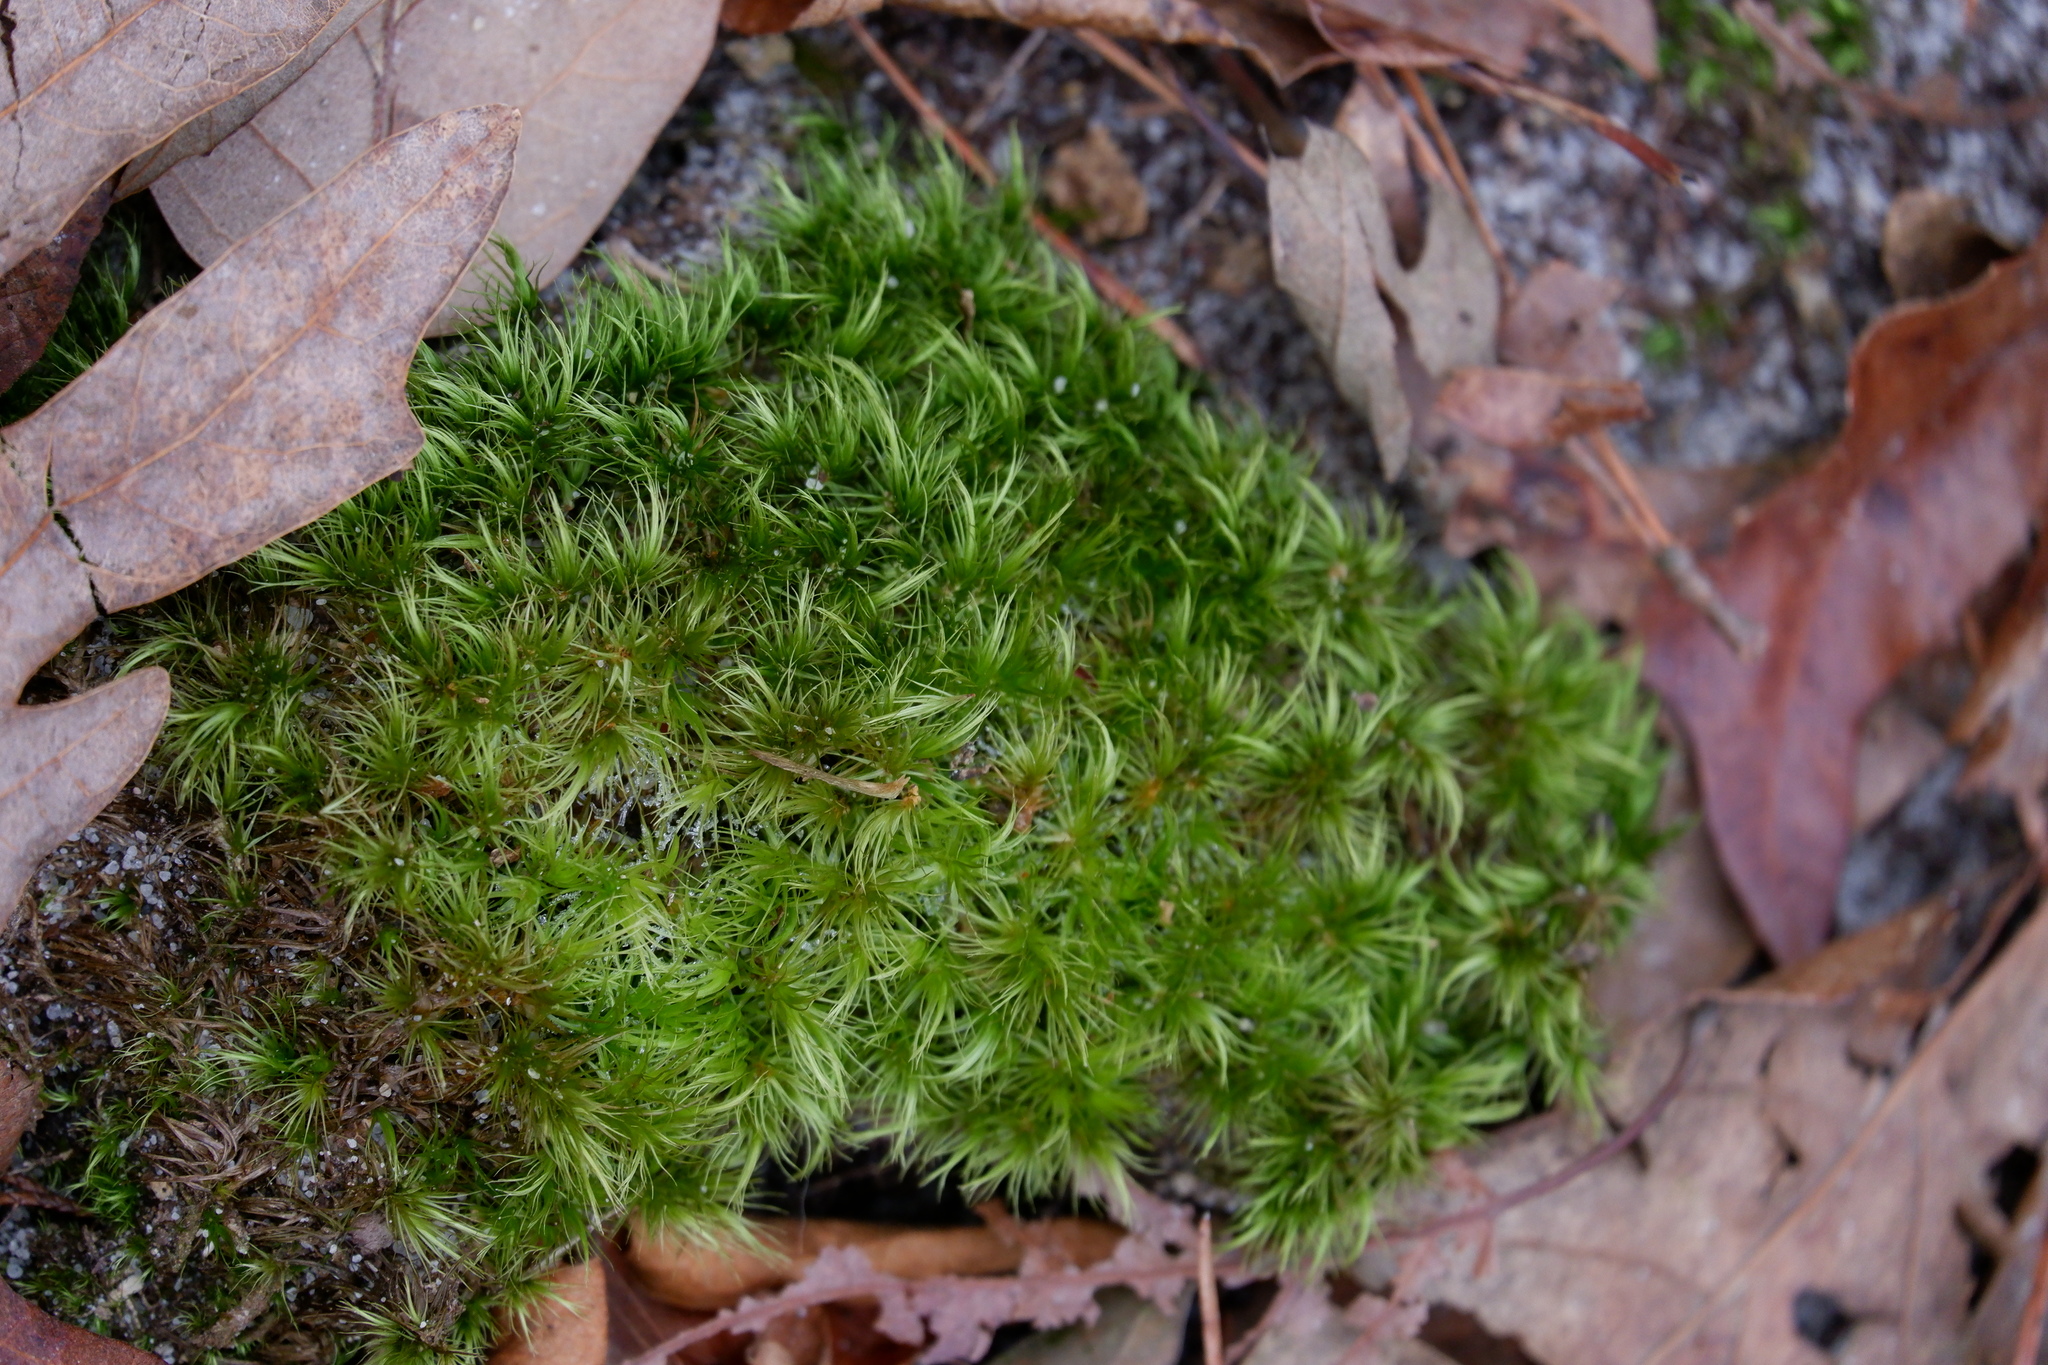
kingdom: Plantae
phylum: Bryophyta
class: Bryopsida
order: Dicranales
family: Dicranaceae
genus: Dicranum
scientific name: Dicranum scoparium
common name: Broom fork-moss
